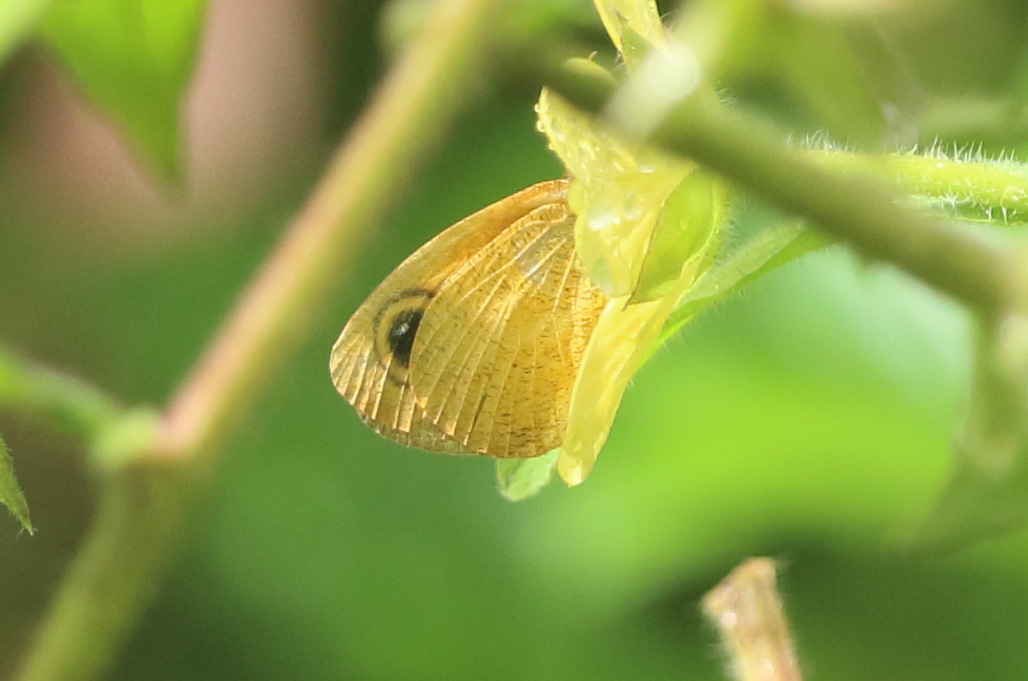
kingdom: Animalia
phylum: Arthropoda
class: Insecta
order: Lepidoptera
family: Nymphalidae
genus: Ypthima
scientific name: Ypthima sesara
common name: Common fijian ringlet
